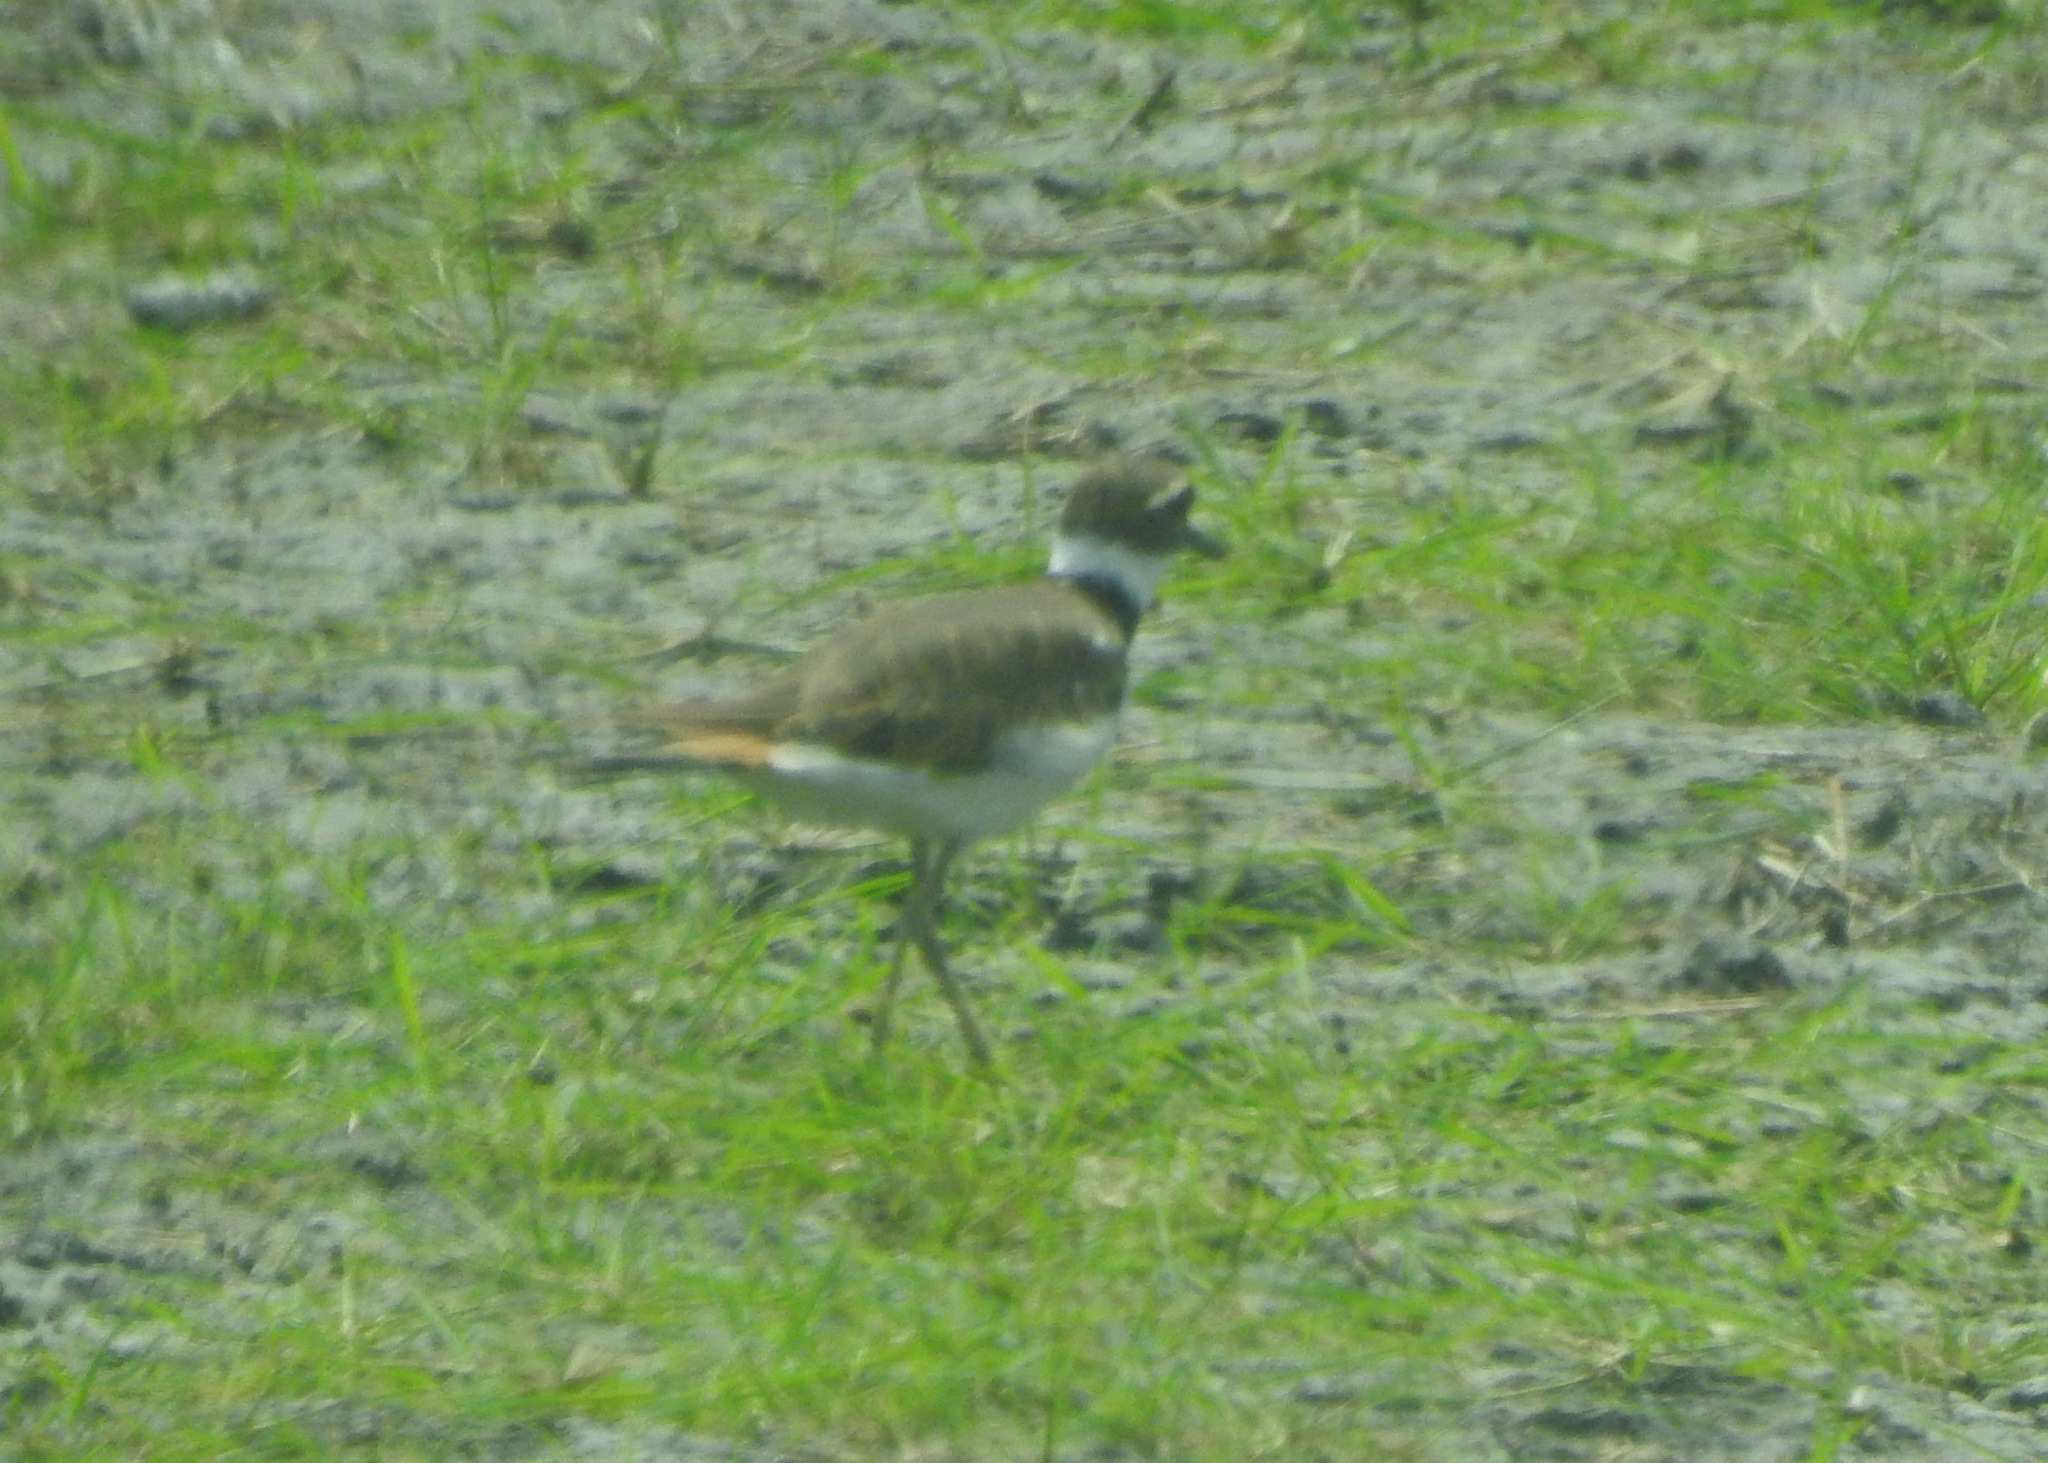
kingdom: Animalia
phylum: Chordata
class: Aves
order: Charadriiformes
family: Charadriidae
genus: Charadrius
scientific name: Charadrius vociferus
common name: Killdeer
